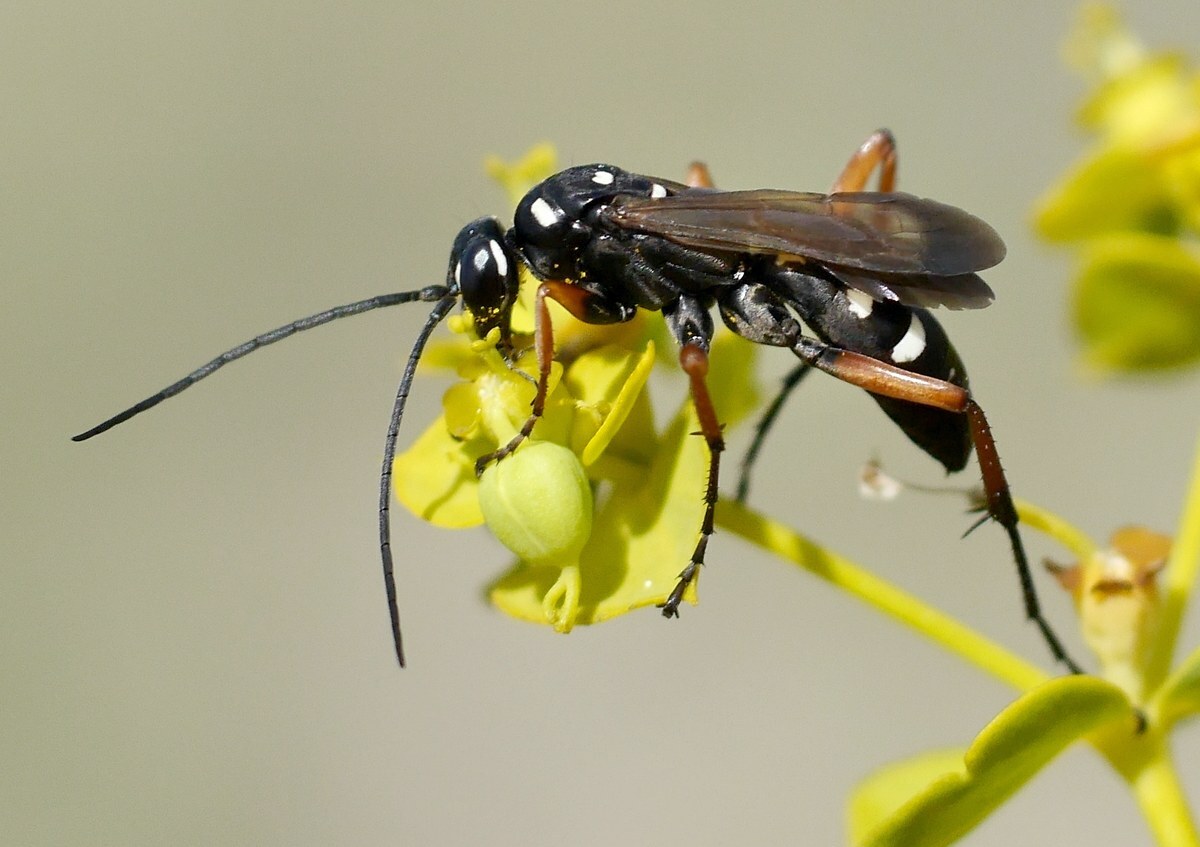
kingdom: Animalia
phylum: Arthropoda
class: Insecta
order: Hymenoptera
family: Pompilidae
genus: Cryptocheilus
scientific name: Cryptocheilus variabilis
